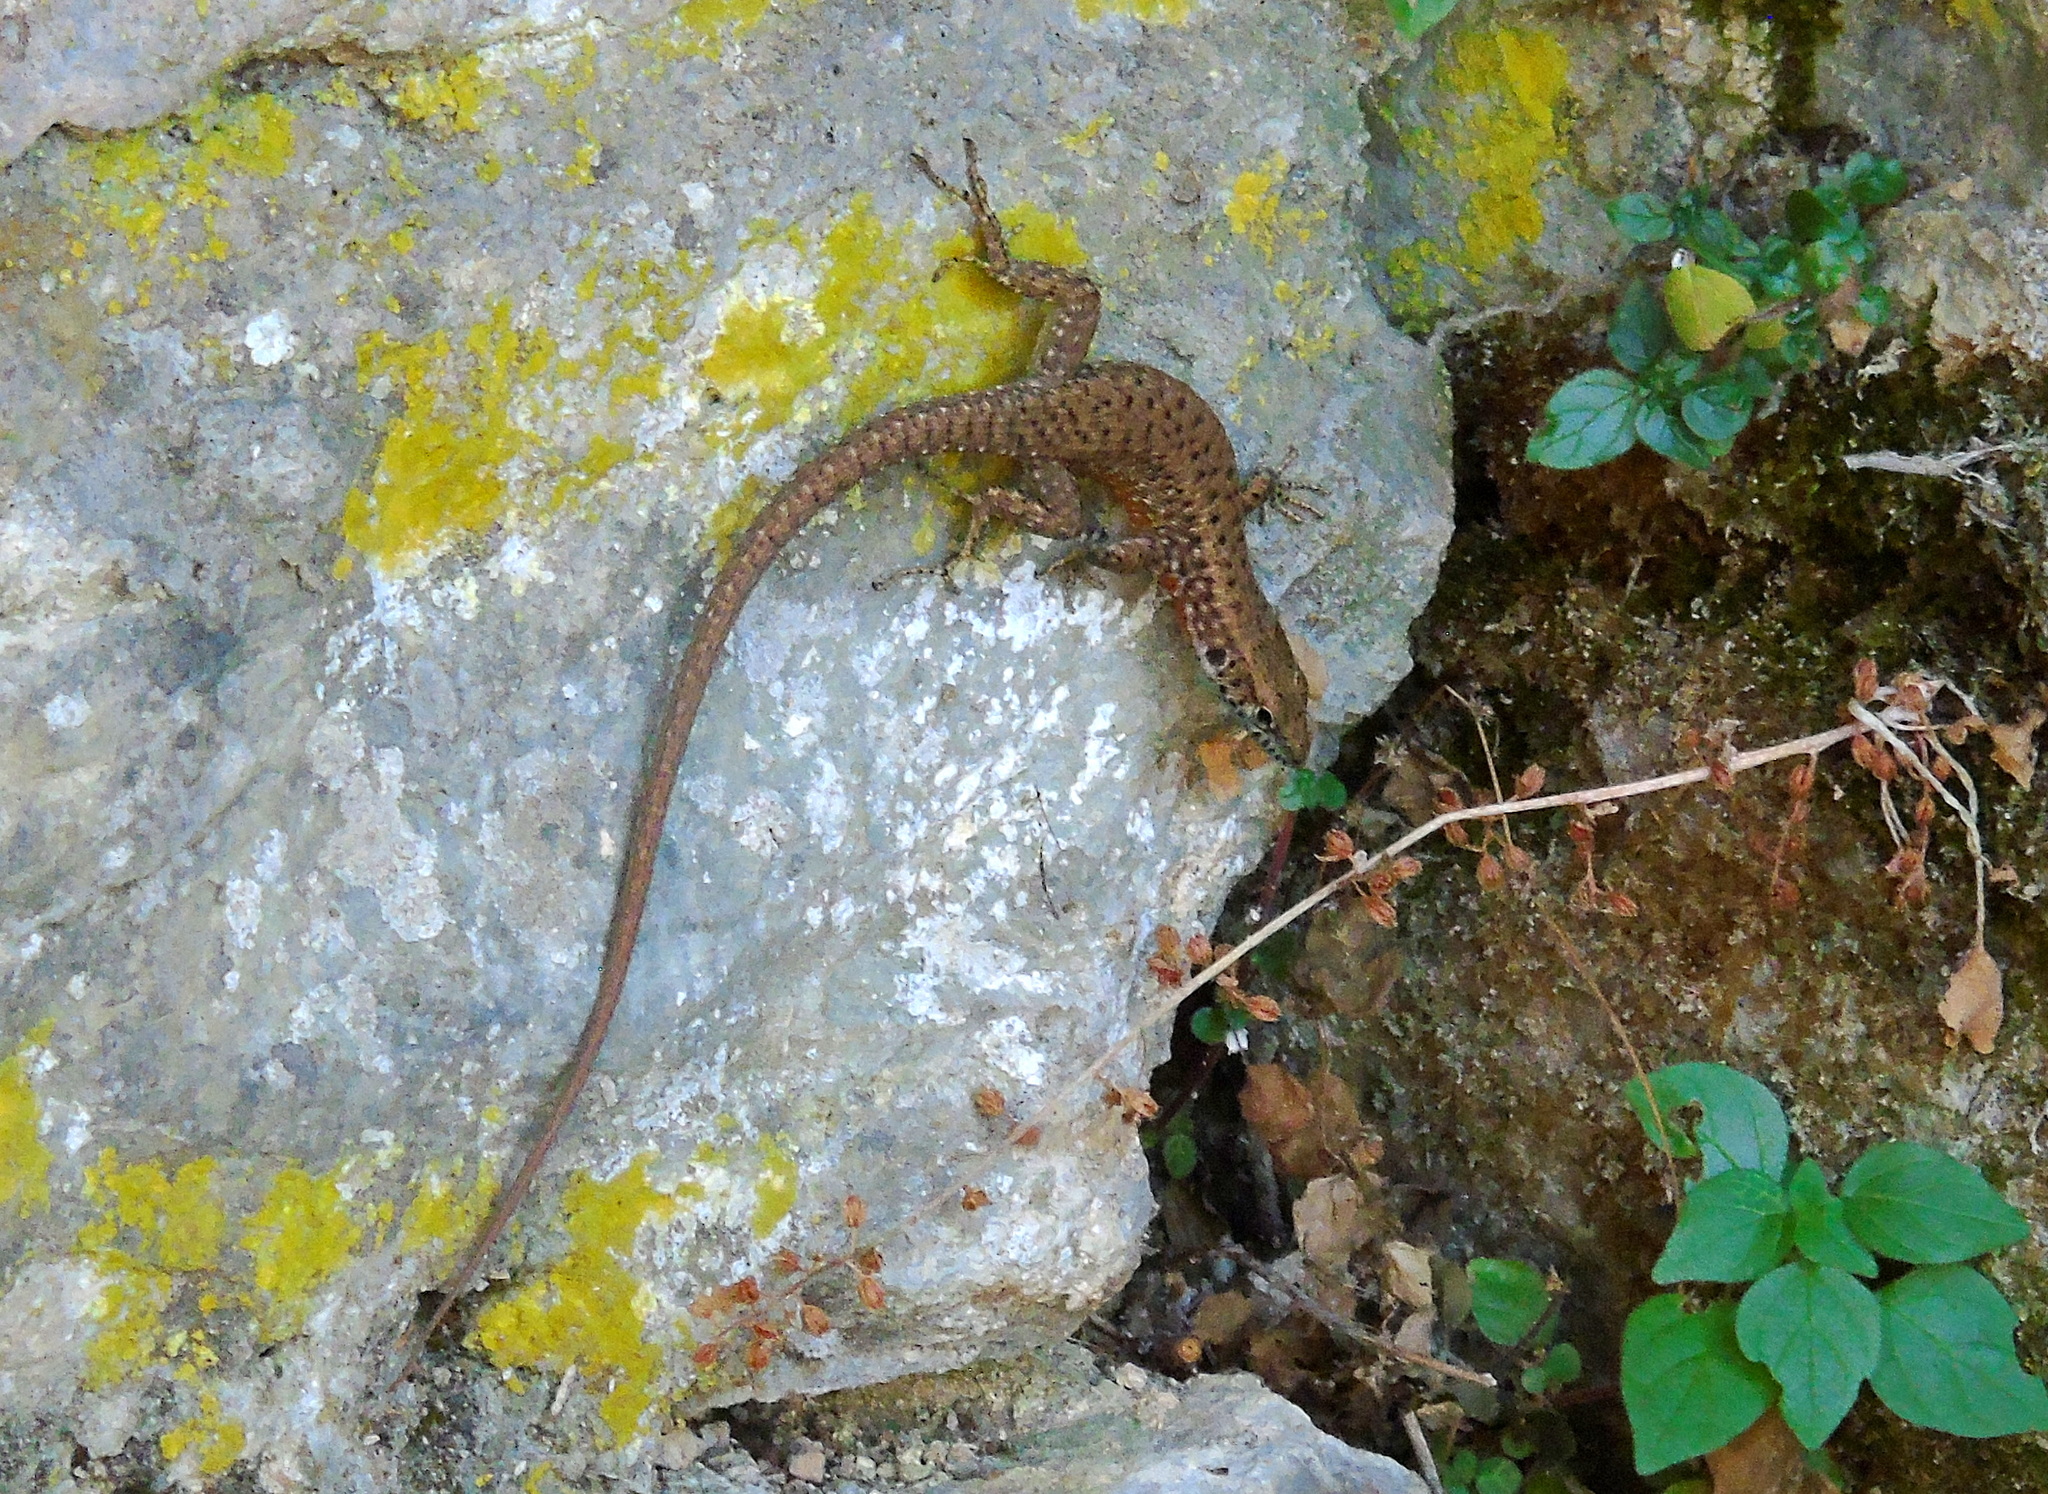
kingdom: Animalia
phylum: Chordata
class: Squamata
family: Lacertidae
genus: Algyroides
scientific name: Algyroides nigropunctatus
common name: Blue-throated keeled lizard
